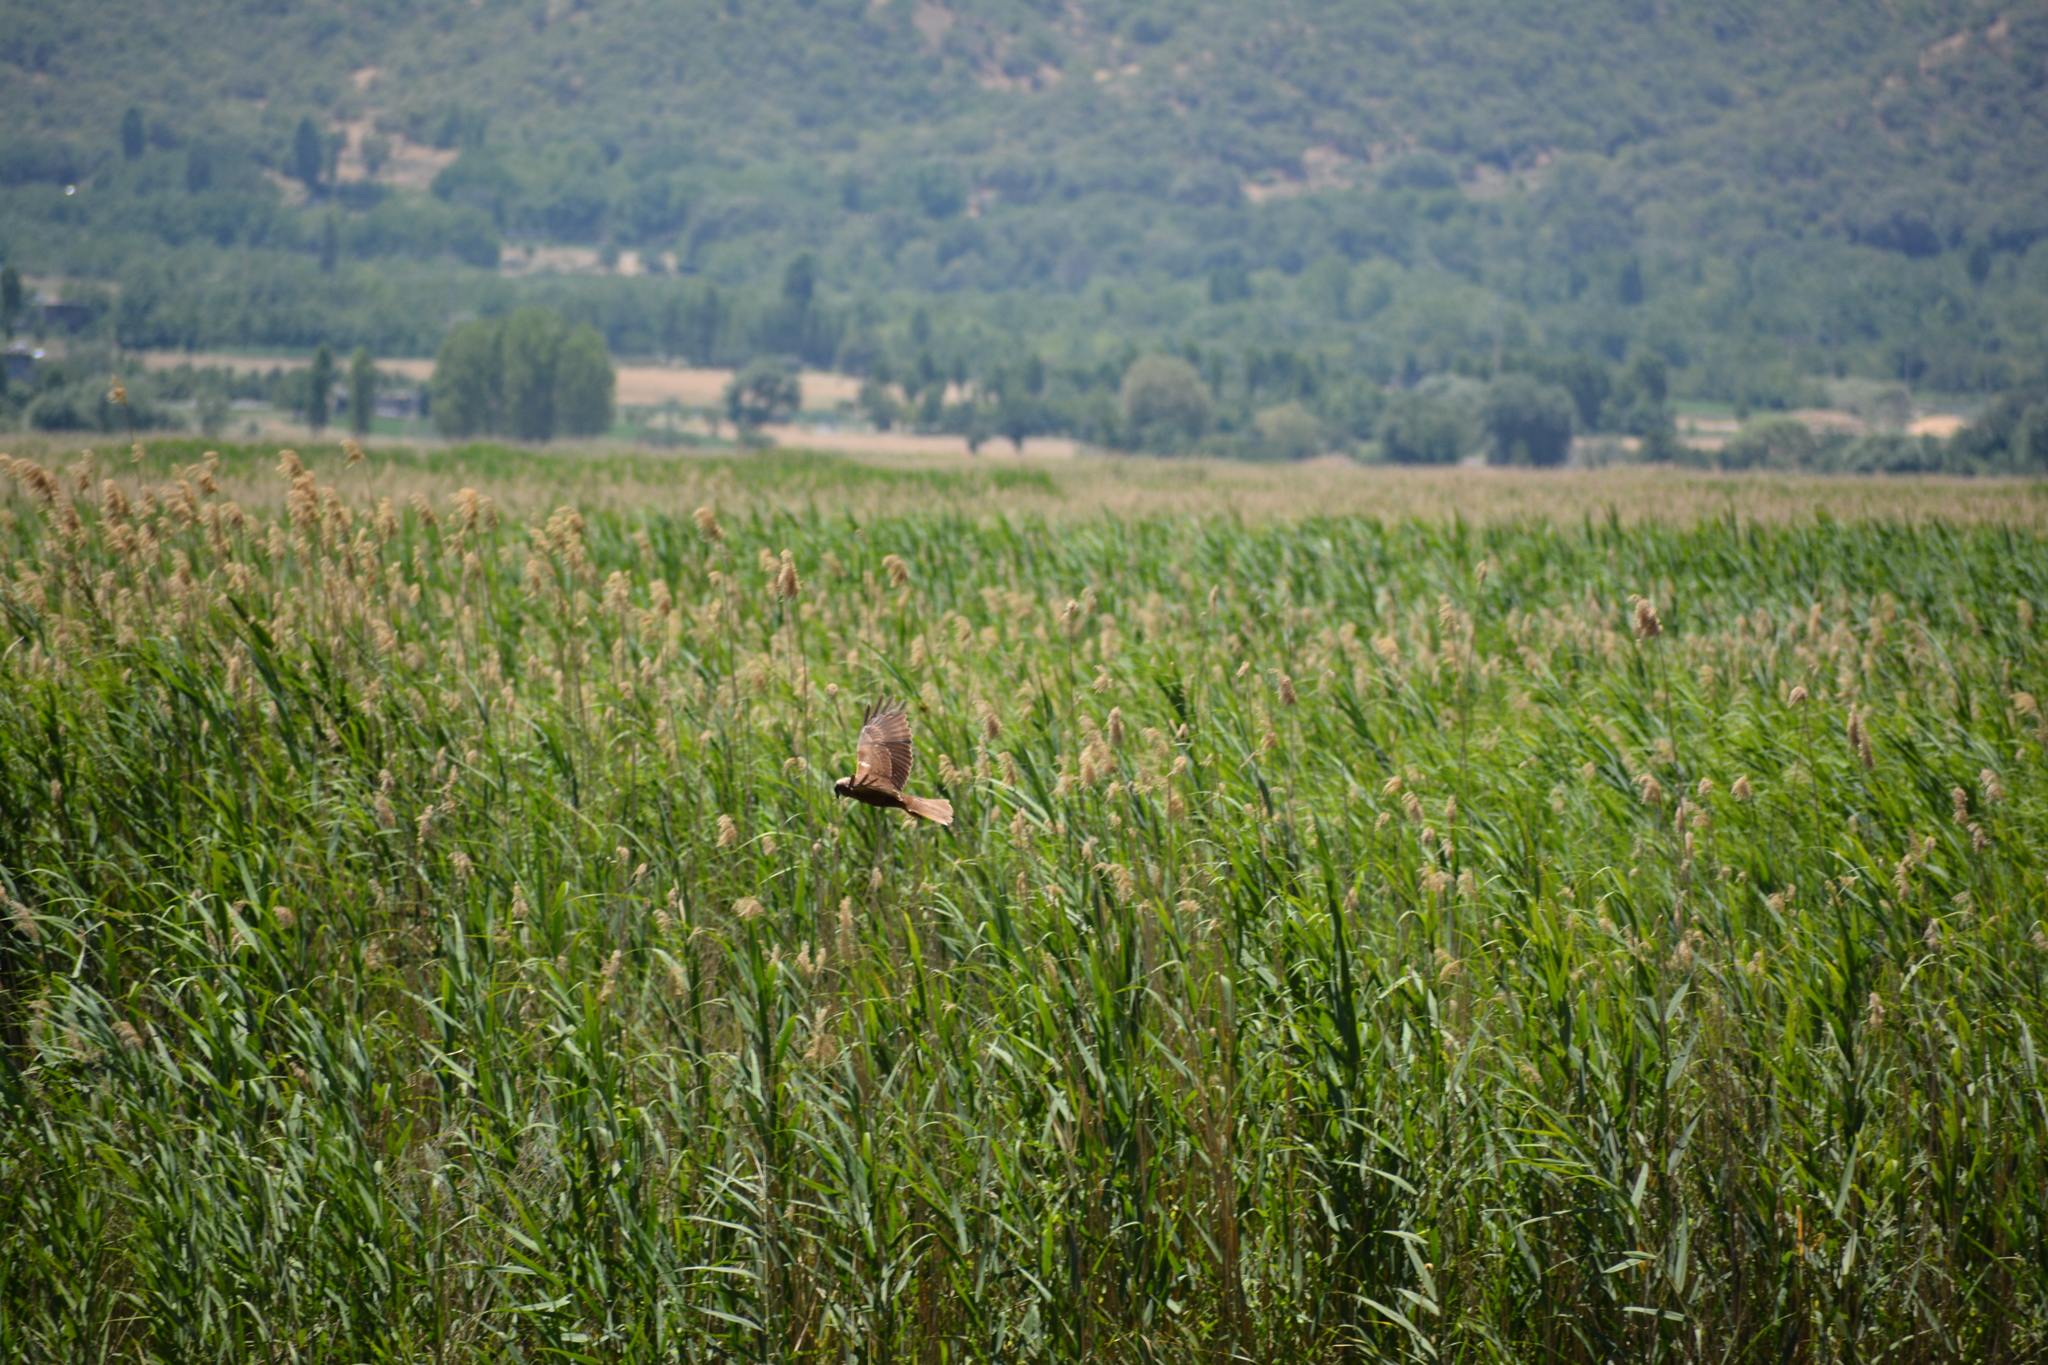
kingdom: Animalia
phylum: Chordata
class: Aves
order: Accipitriformes
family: Accipitridae
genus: Circus
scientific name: Circus aeruginosus
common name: Western marsh harrier
